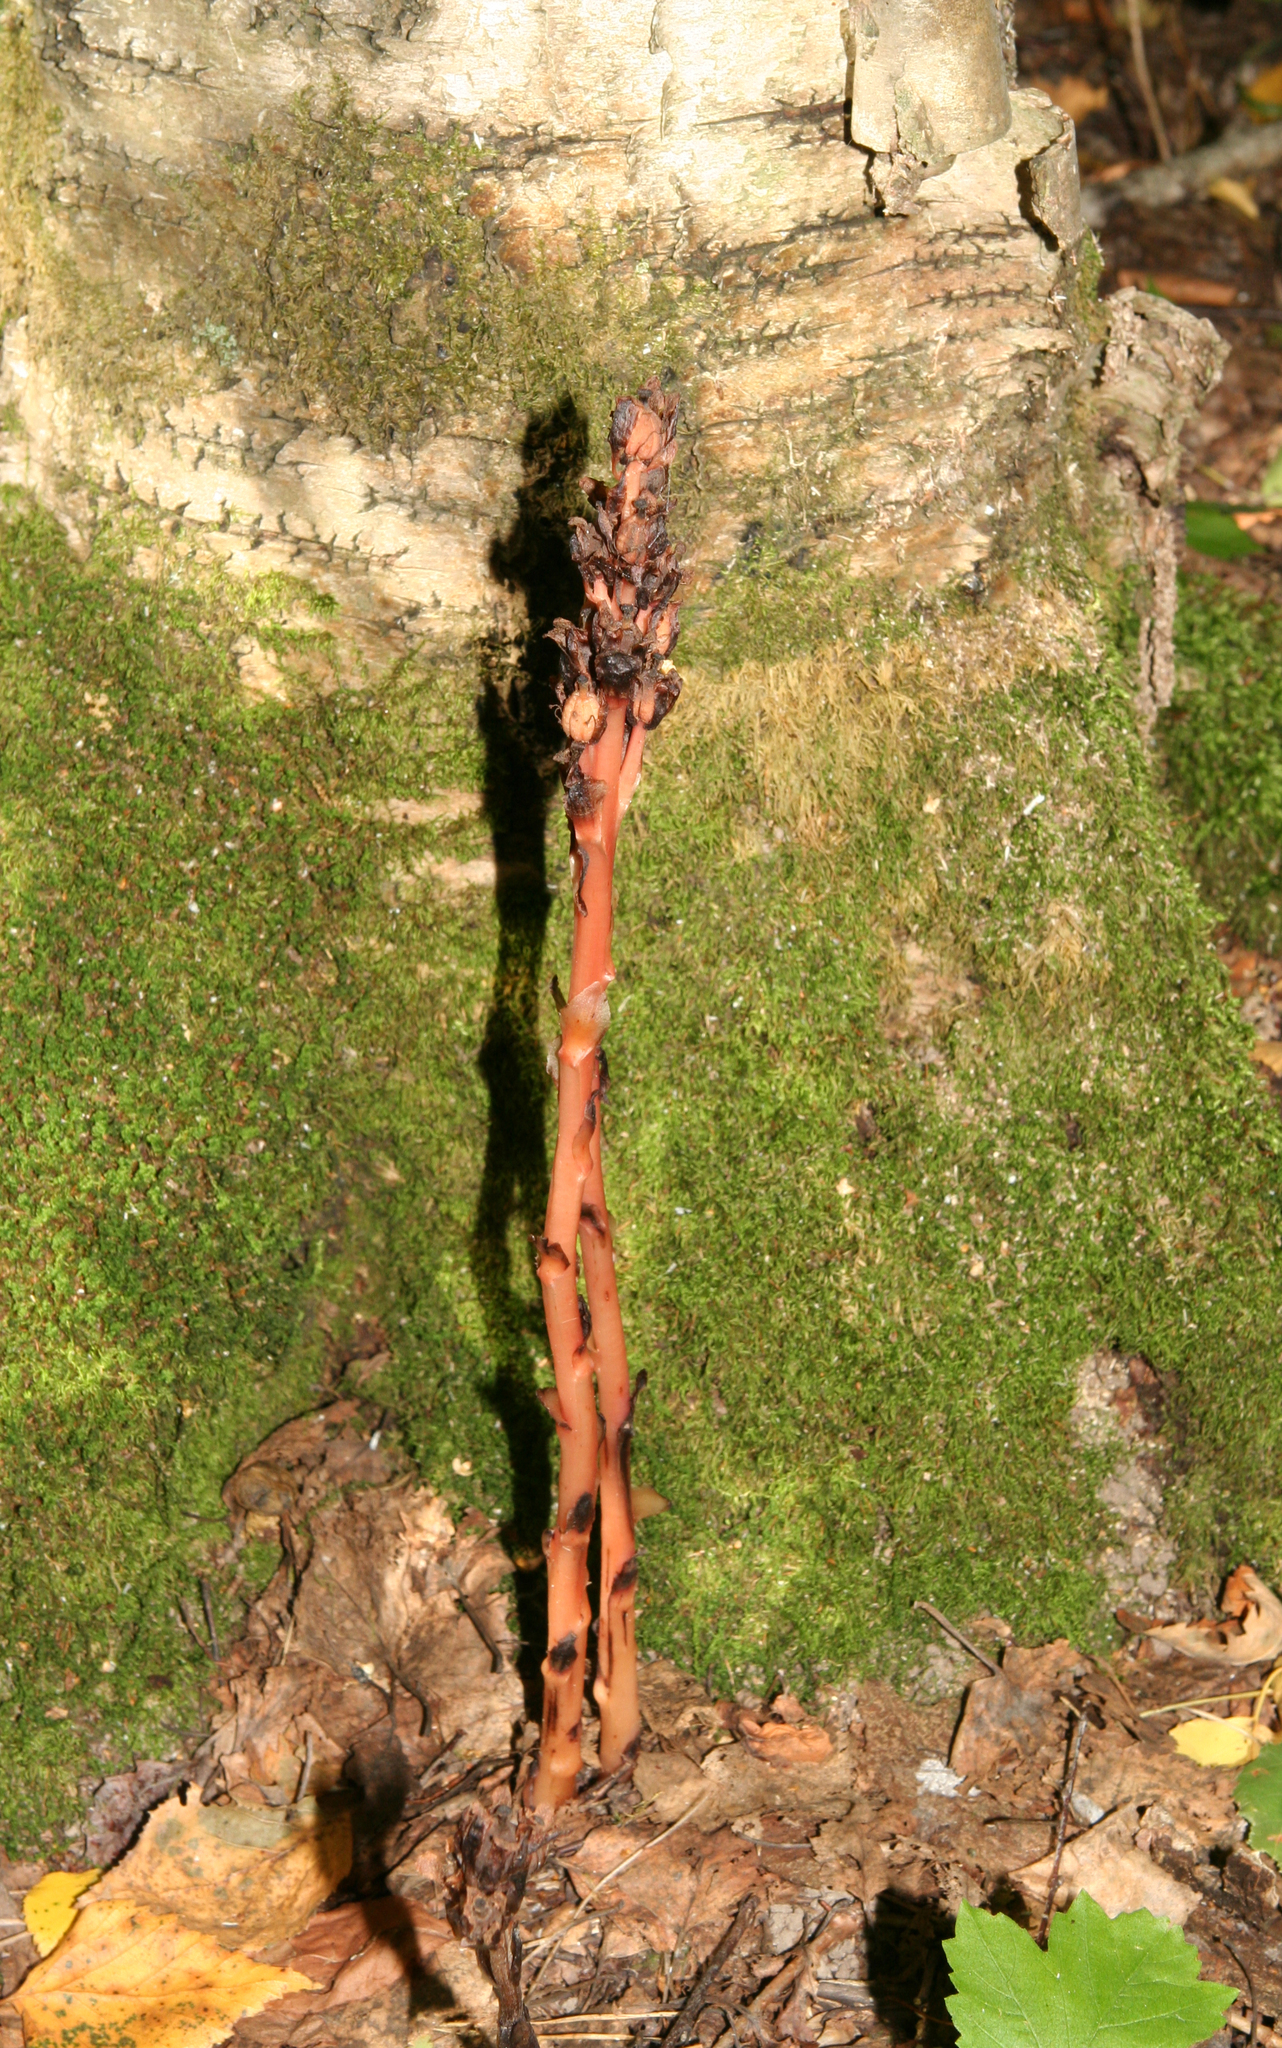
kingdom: Plantae
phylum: Tracheophyta
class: Magnoliopsida
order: Ericales
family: Ericaceae
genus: Hypopitys
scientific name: Hypopitys monotropa
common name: Yellow bird's-nest
